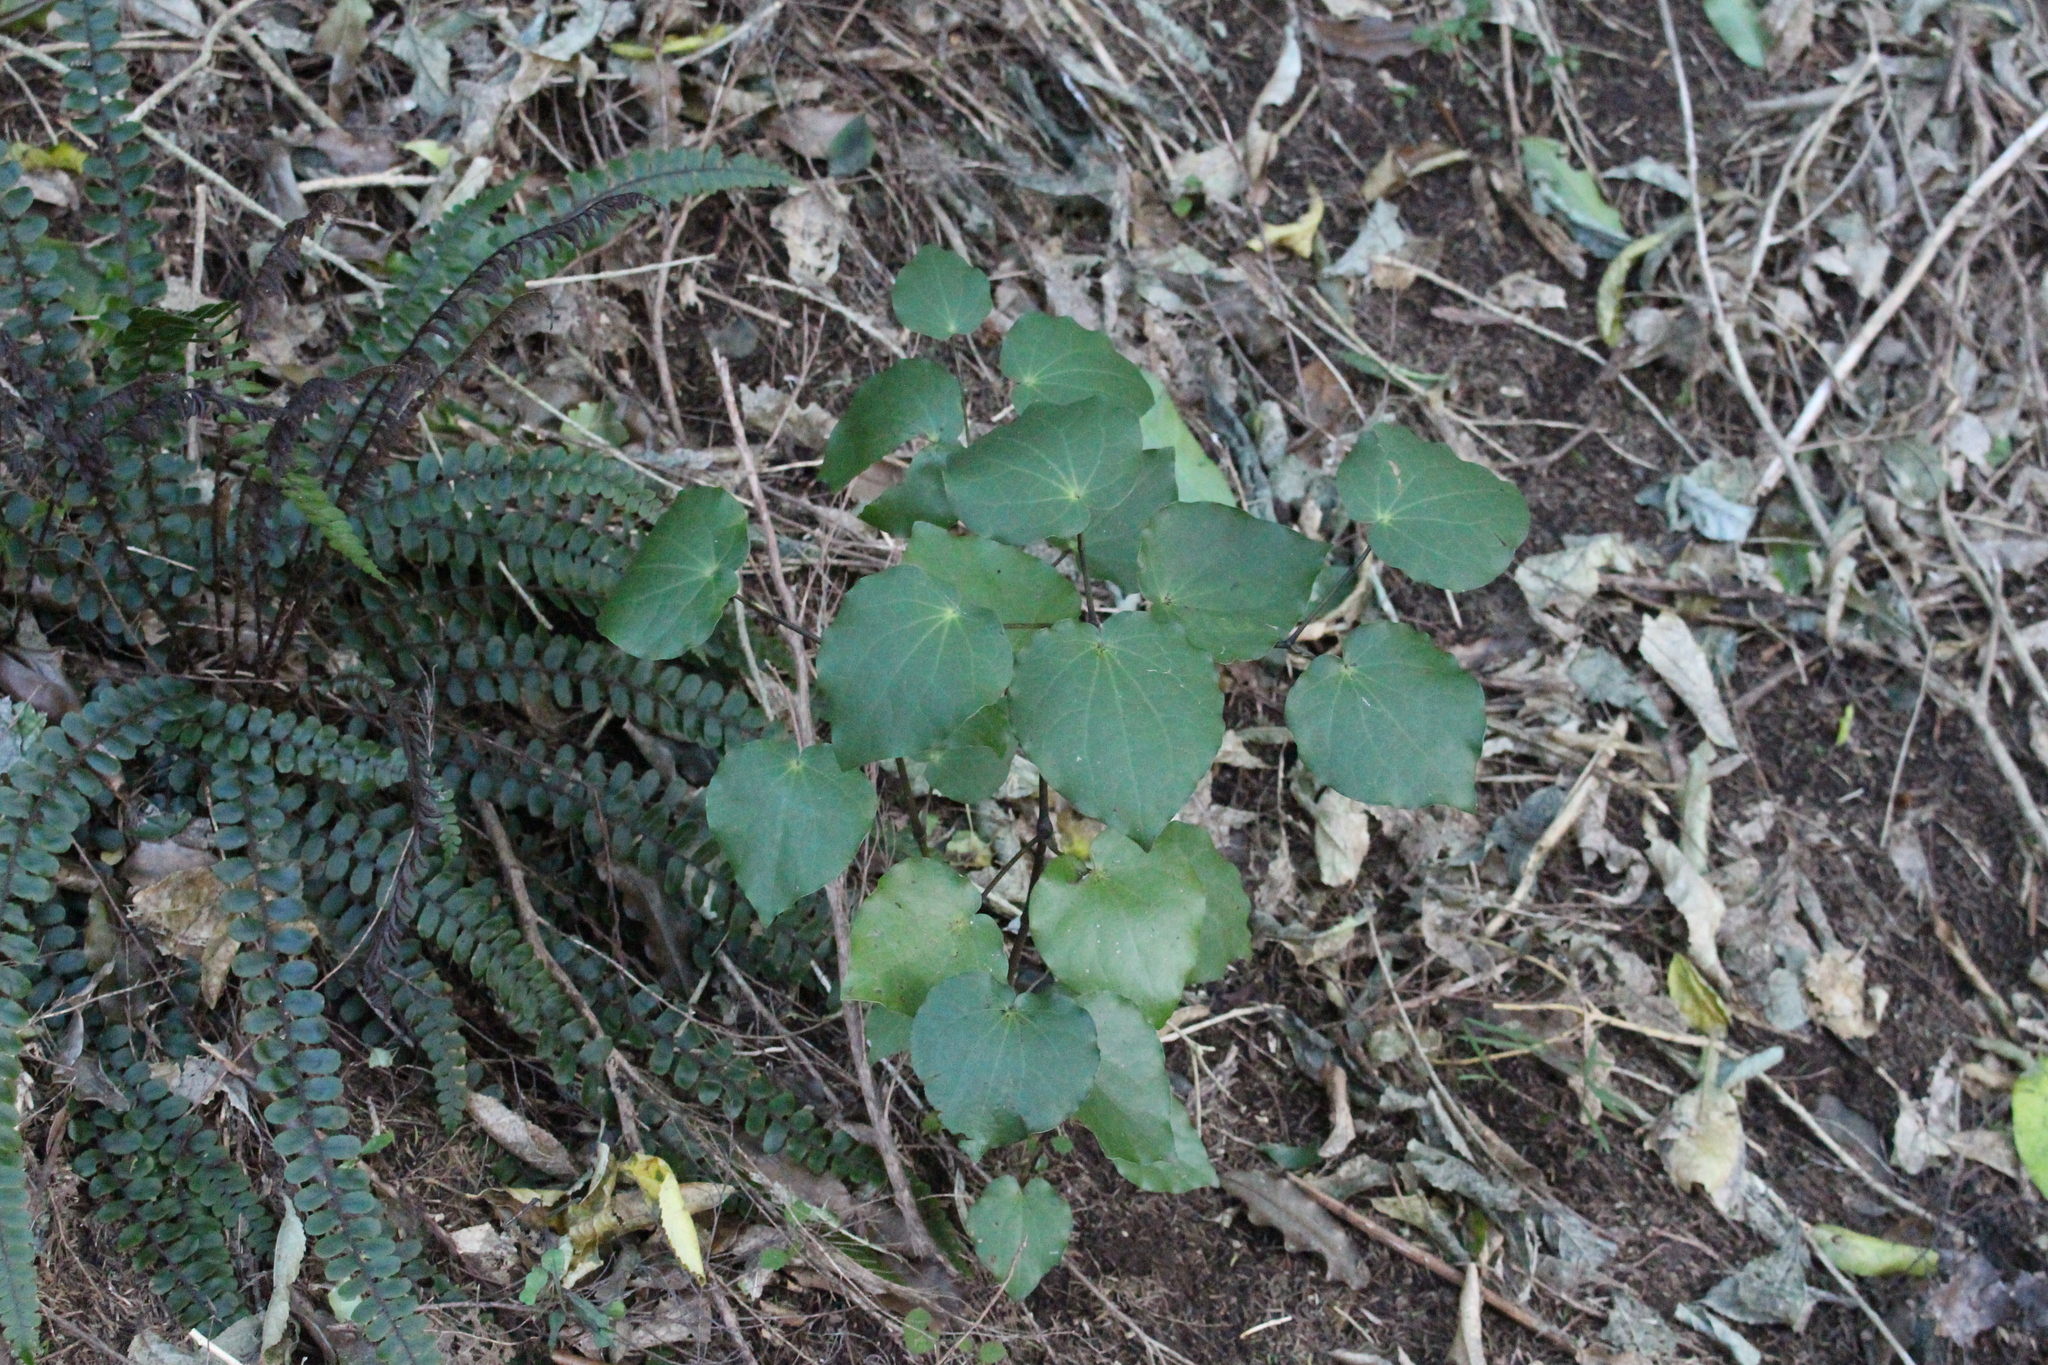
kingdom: Plantae
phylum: Tracheophyta
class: Magnoliopsida
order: Piperales
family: Piperaceae
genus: Macropiper
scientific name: Macropiper excelsum
